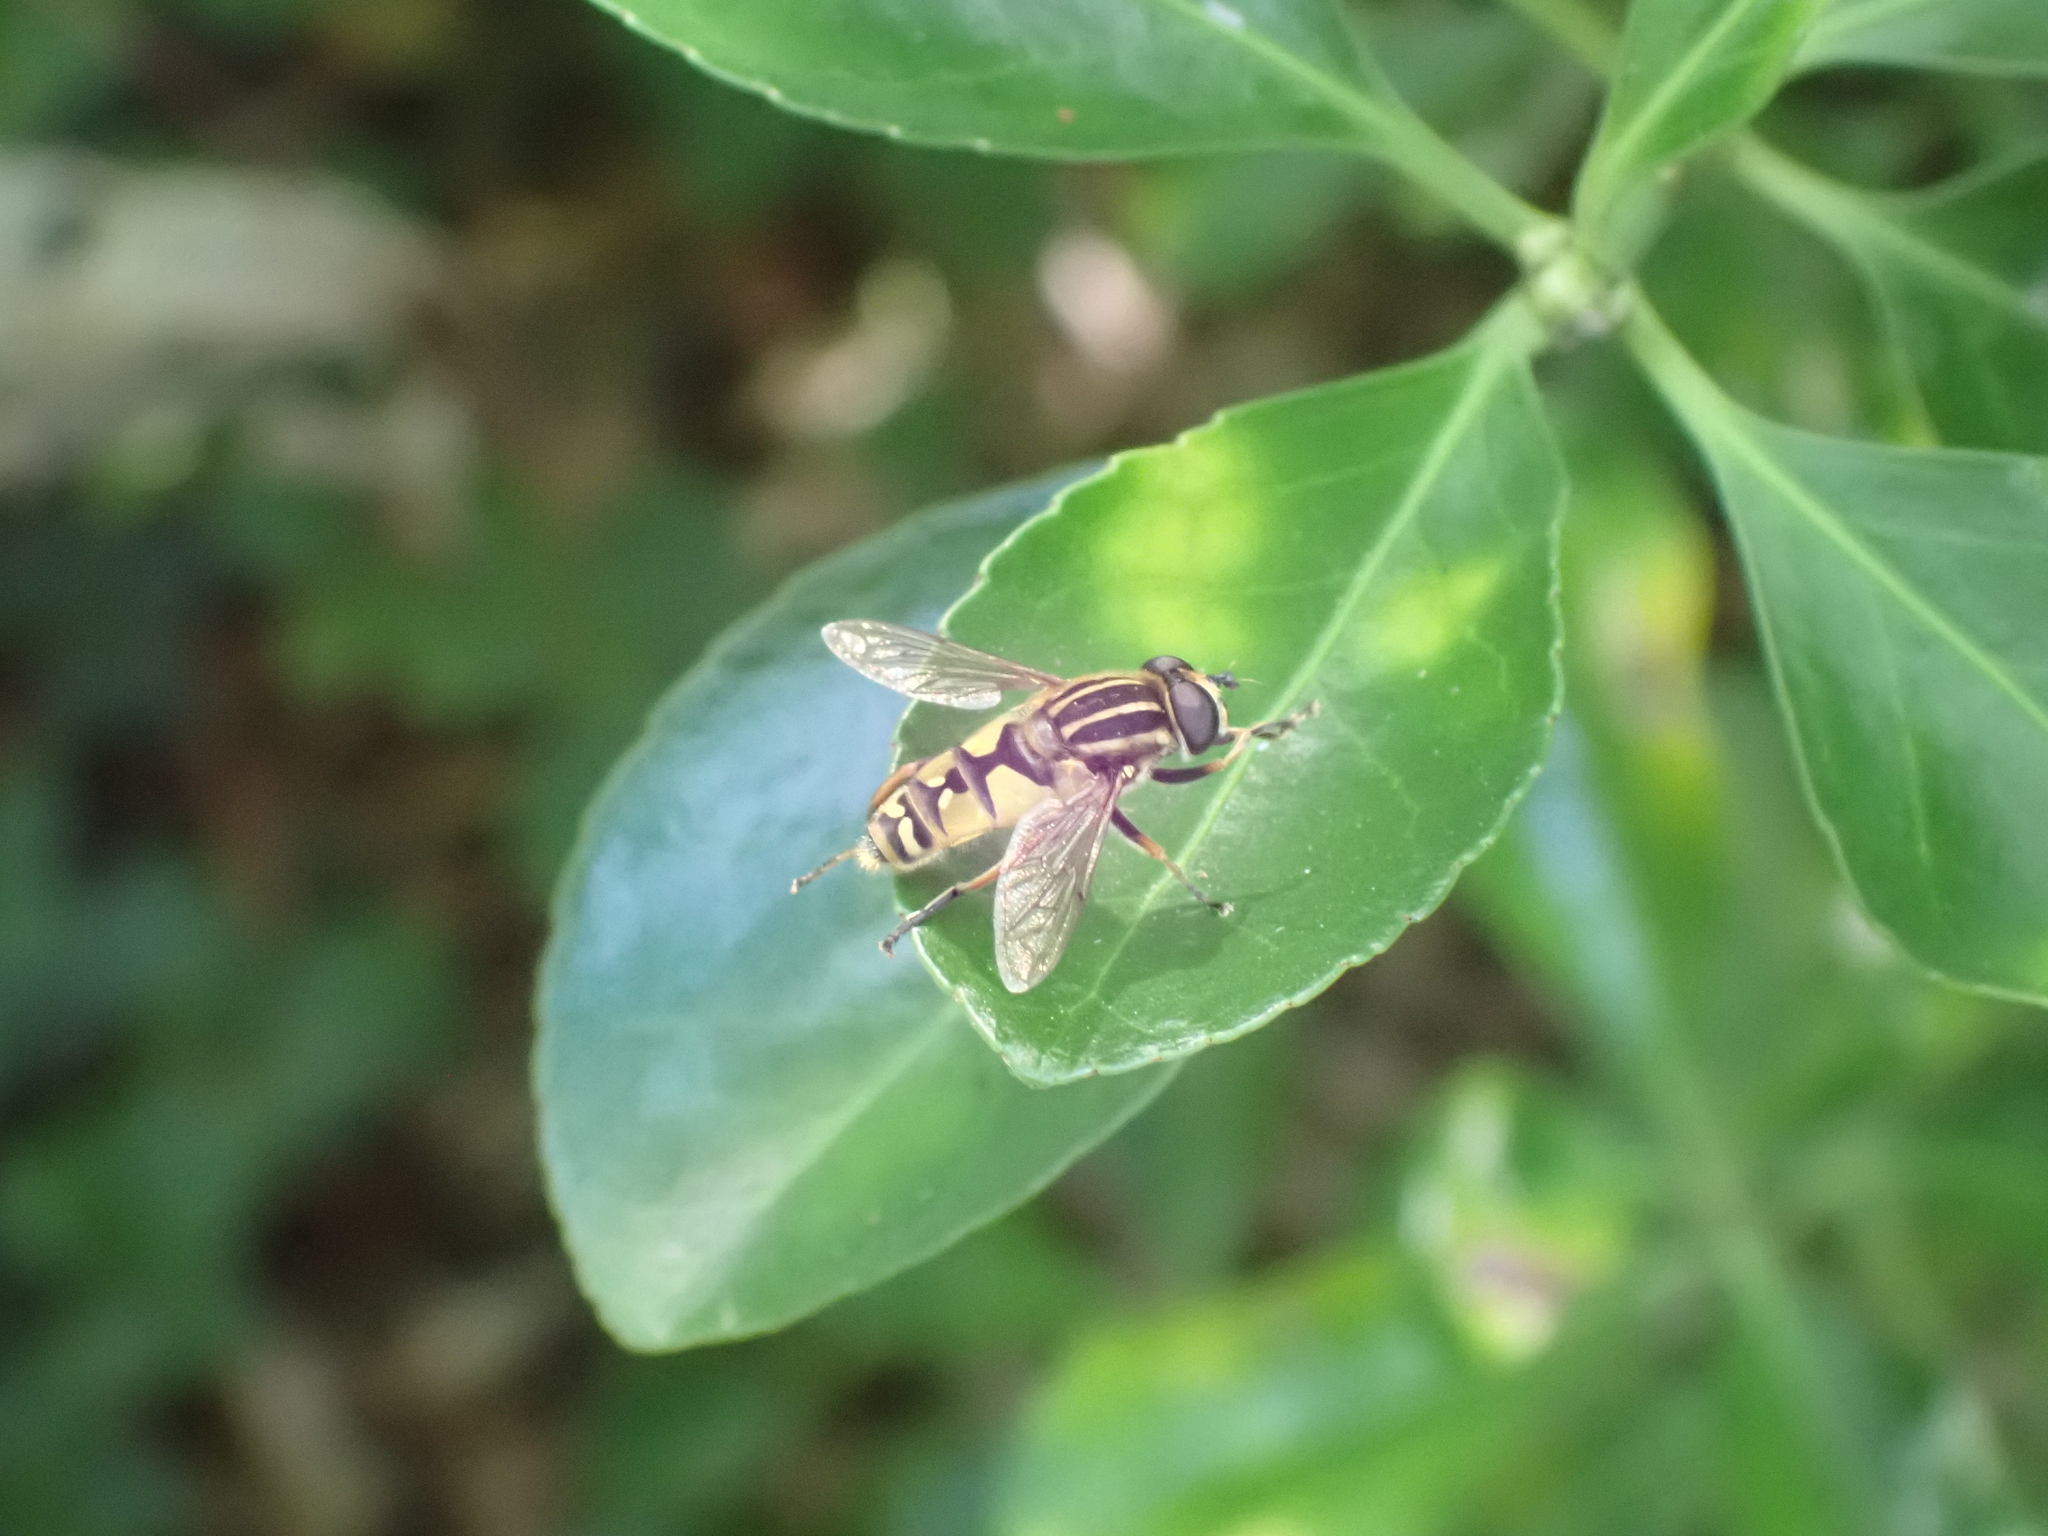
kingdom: Animalia
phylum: Arthropoda
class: Insecta
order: Diptera
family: Syrphidae
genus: Helophilus
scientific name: Helophilus pendulus
